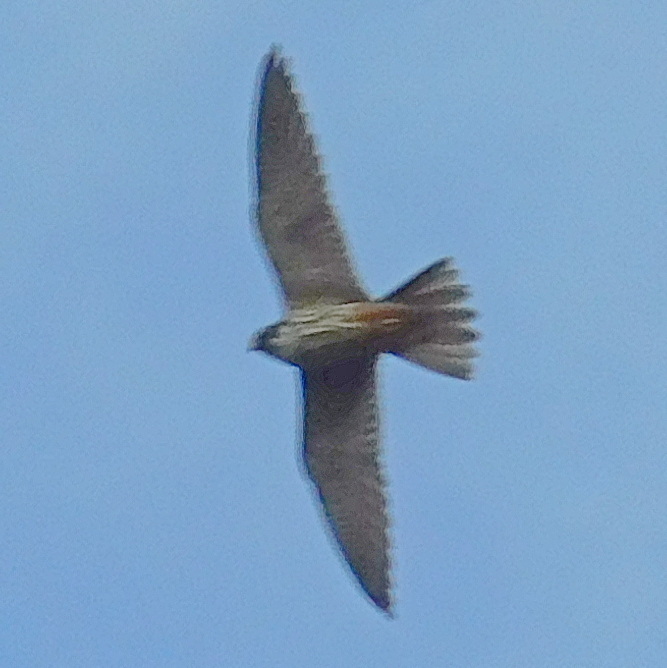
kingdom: Animalia
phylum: Chordata
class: Aves
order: Falconiformes
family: Falconidae
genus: Falco
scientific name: Falco subbuteo
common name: Eurasian hobby
